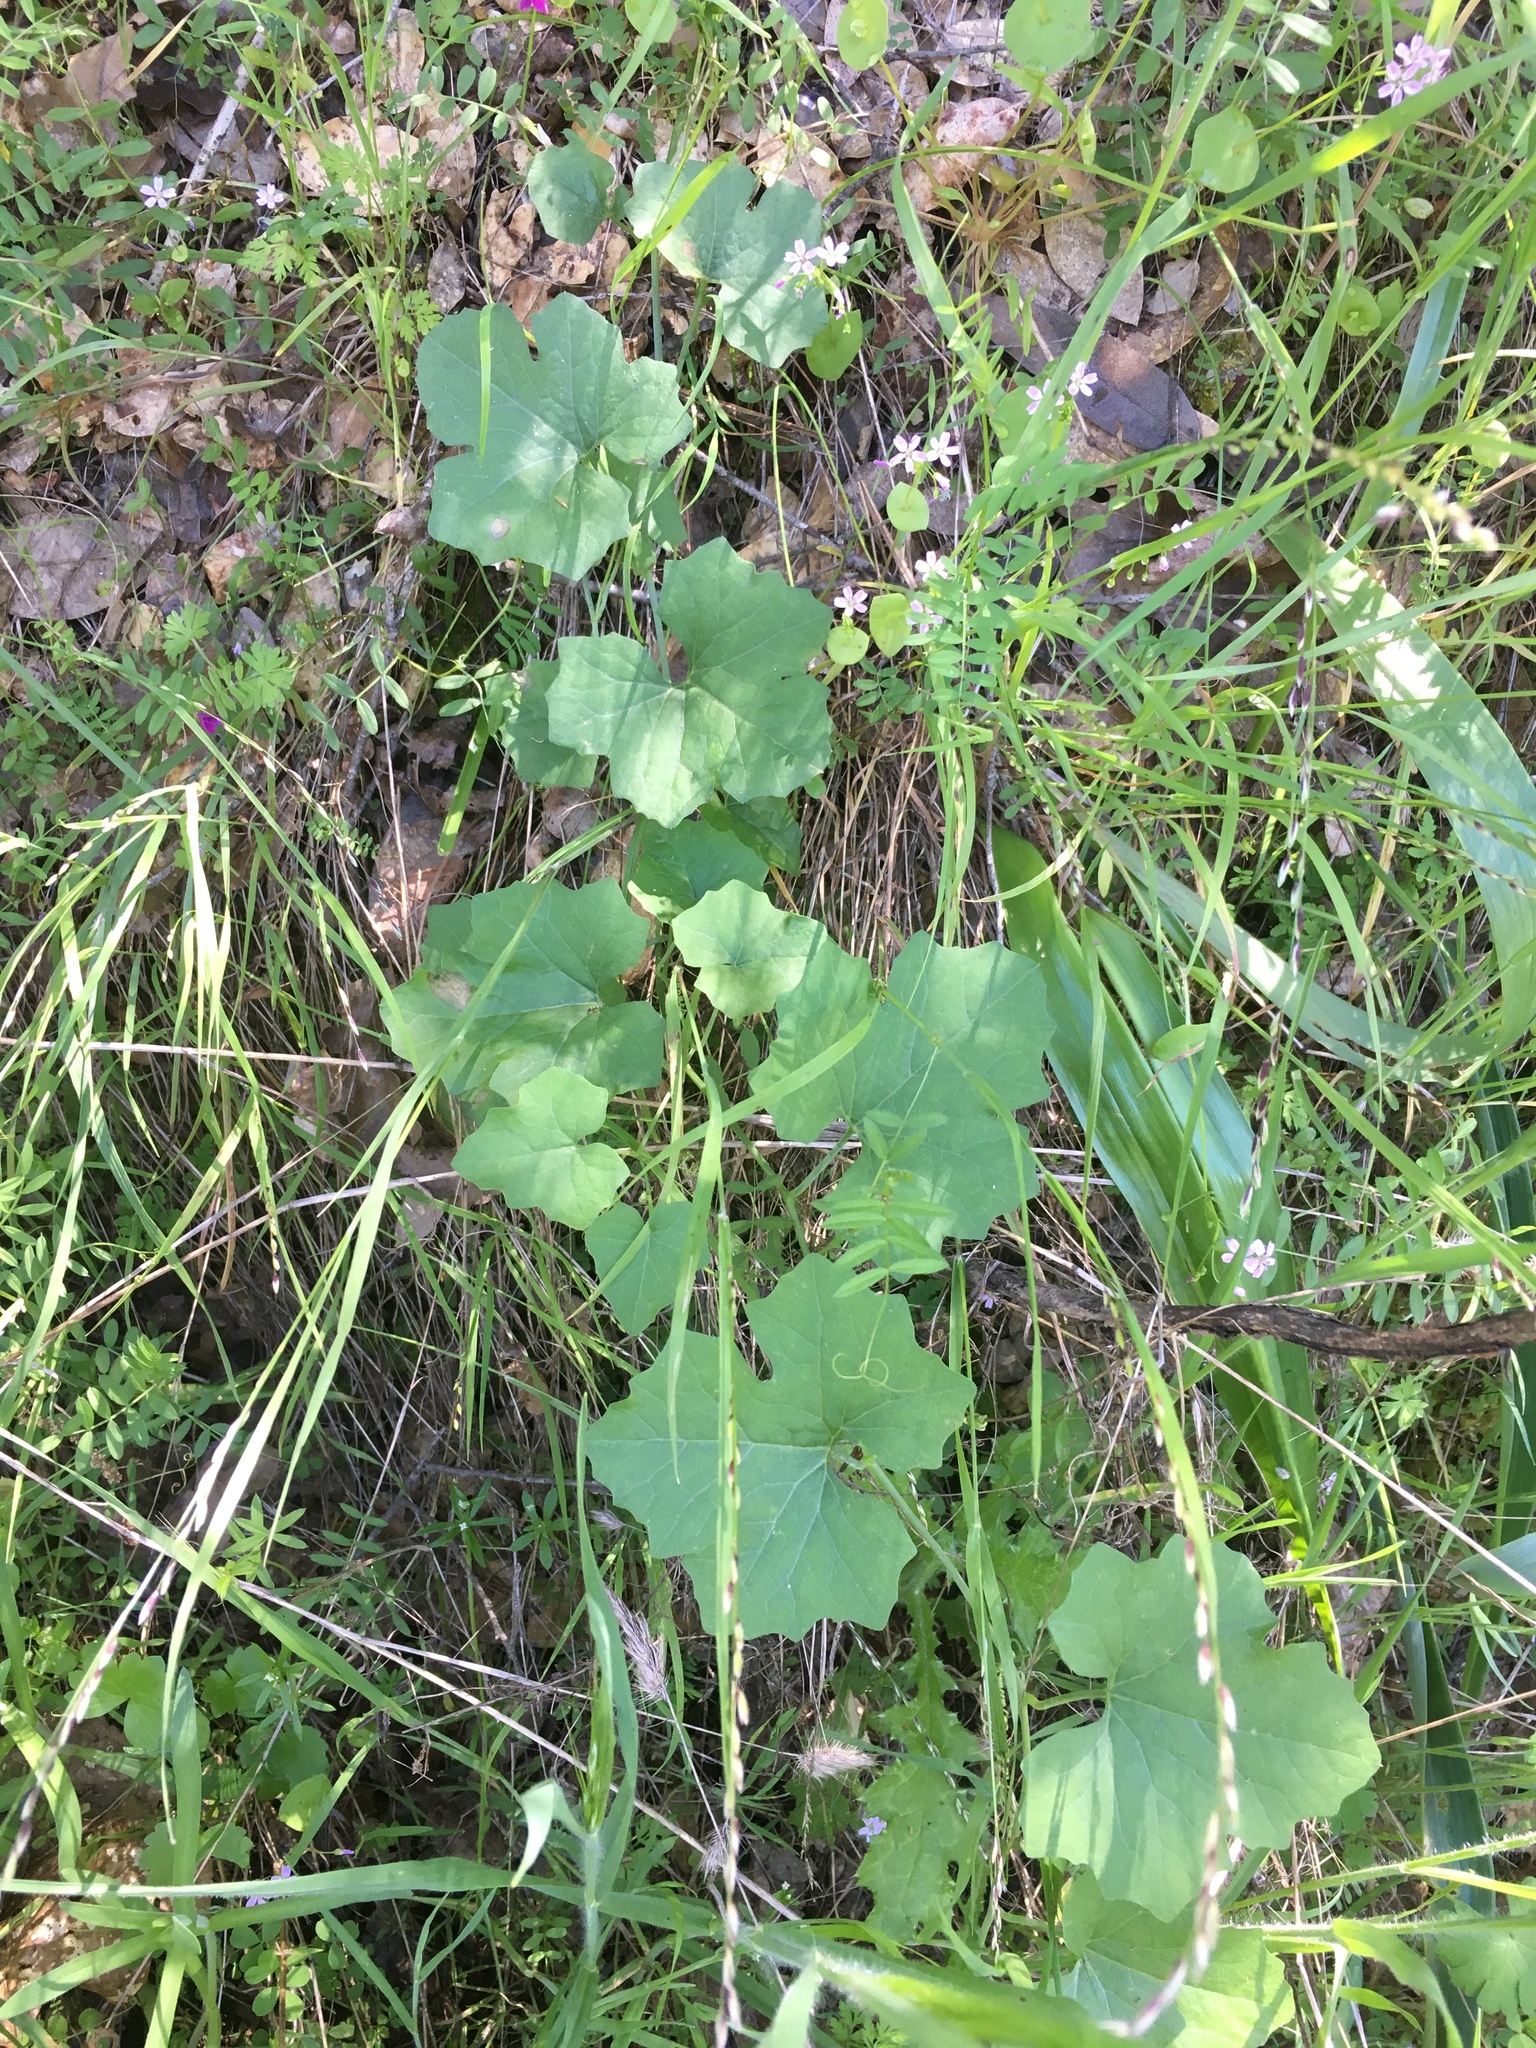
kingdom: Plantae
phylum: Tracheophyta
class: Magnoliopsida
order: Cucurbitales
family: Cucurbitaceae
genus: Marah
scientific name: Marah fabacea
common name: California manroot
